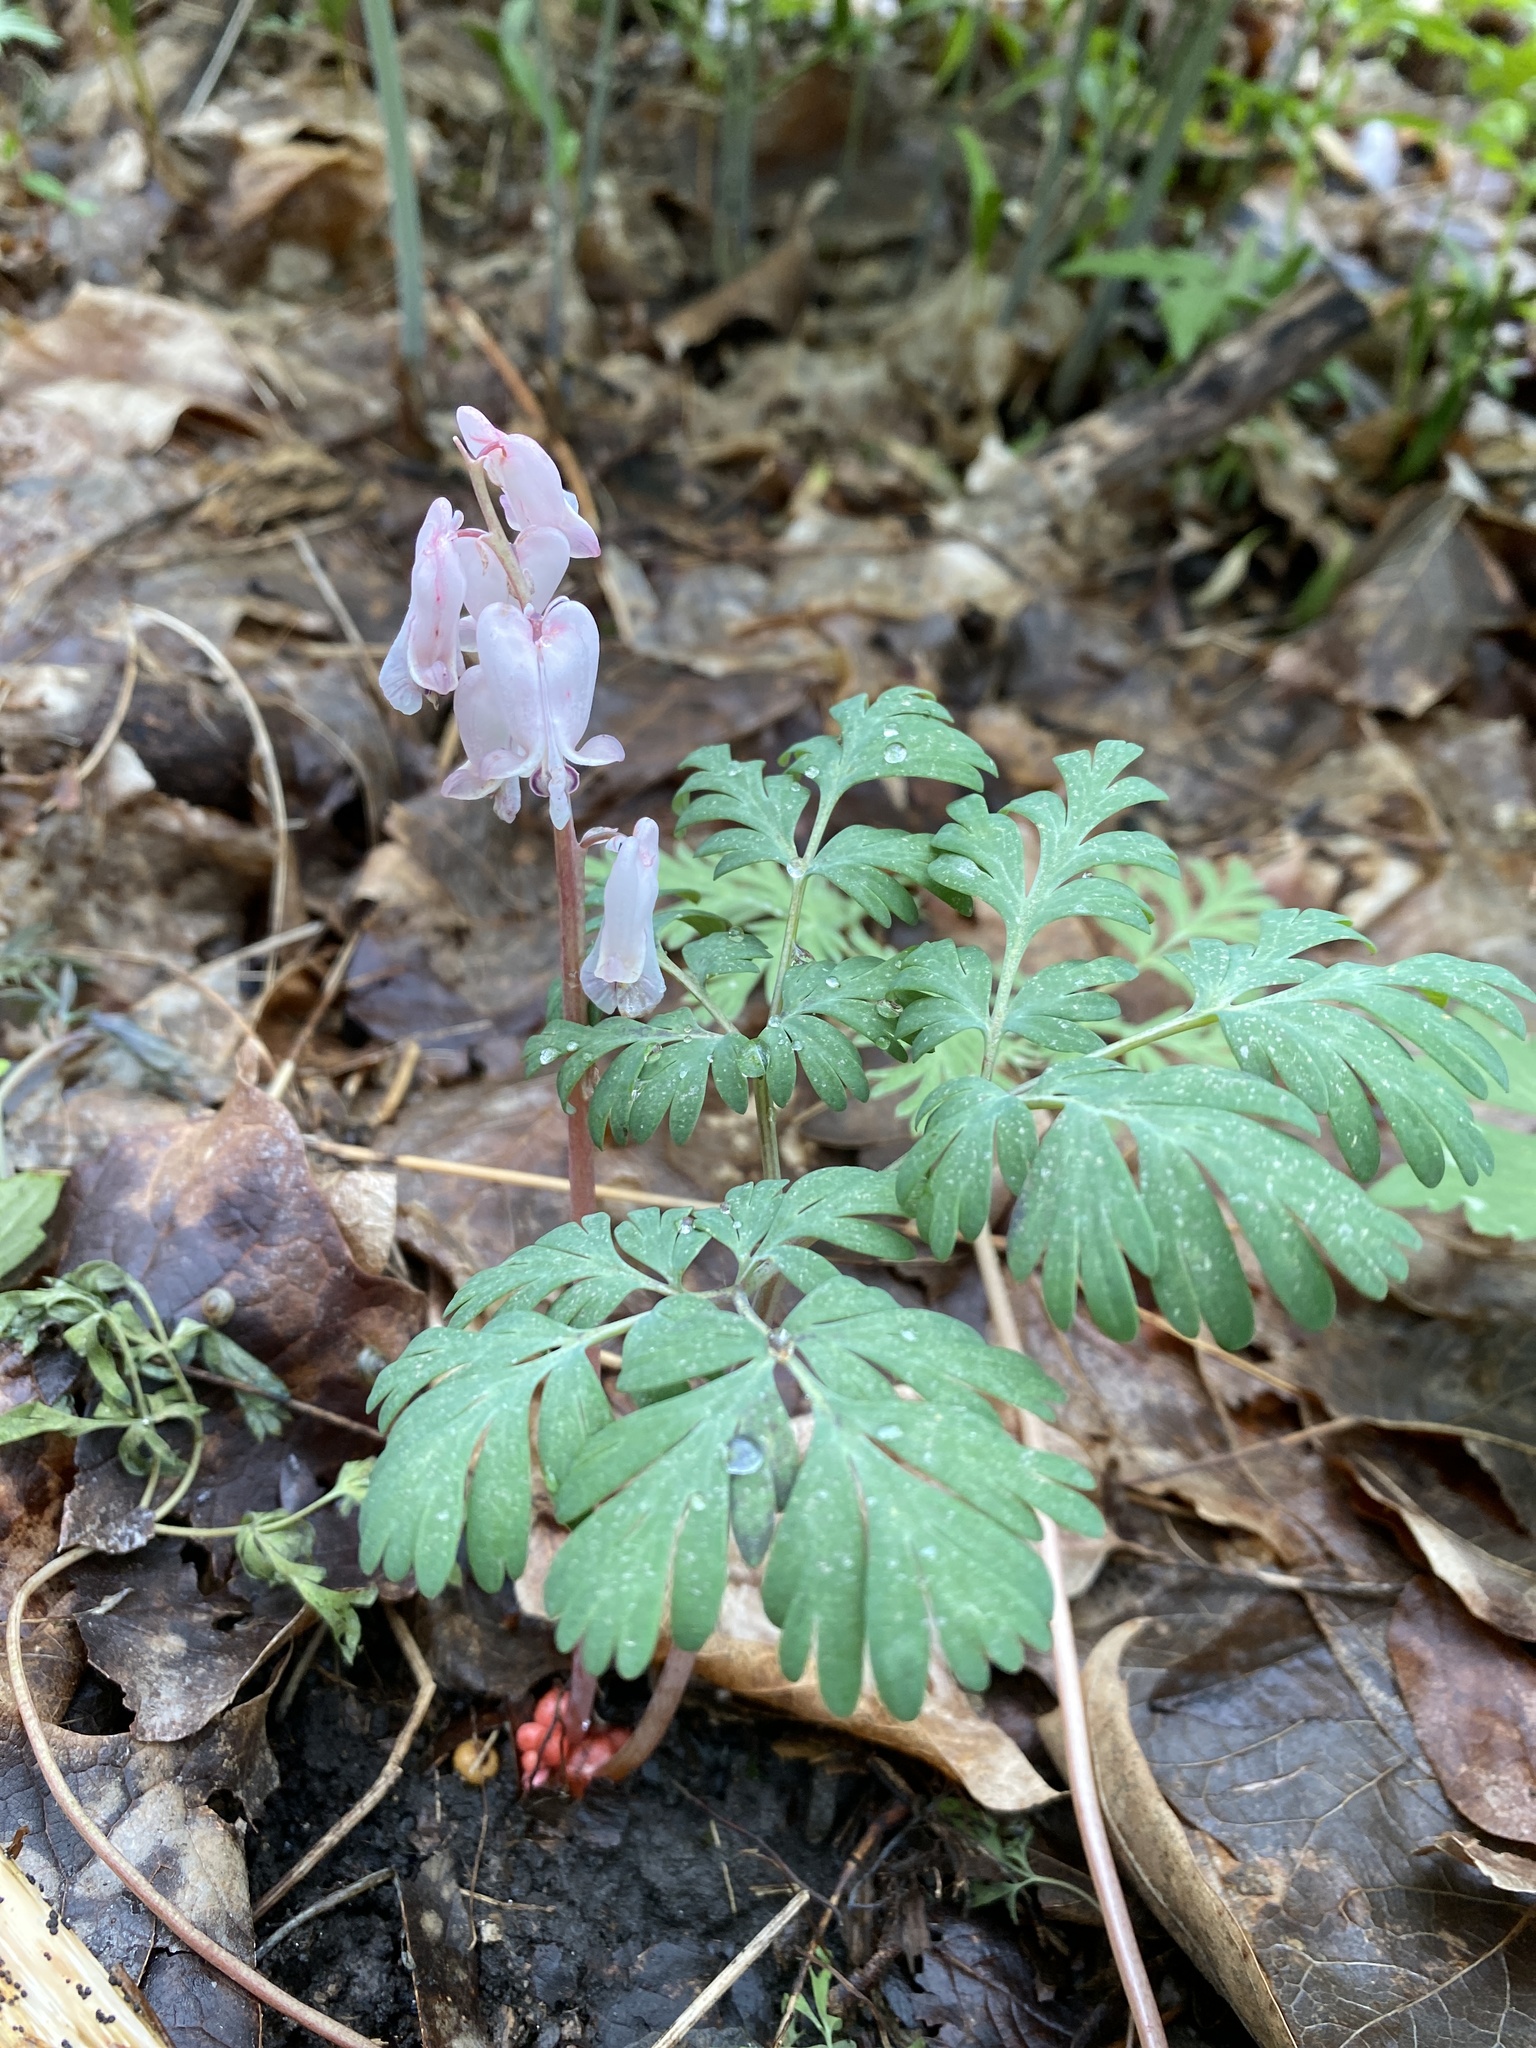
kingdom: Plantae
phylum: Tracheophyta
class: Magnoliopsida
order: Ranunculales
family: Papaveraceae
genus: Dicentra
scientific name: Dicentra canadensis
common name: Squirrel-corn
